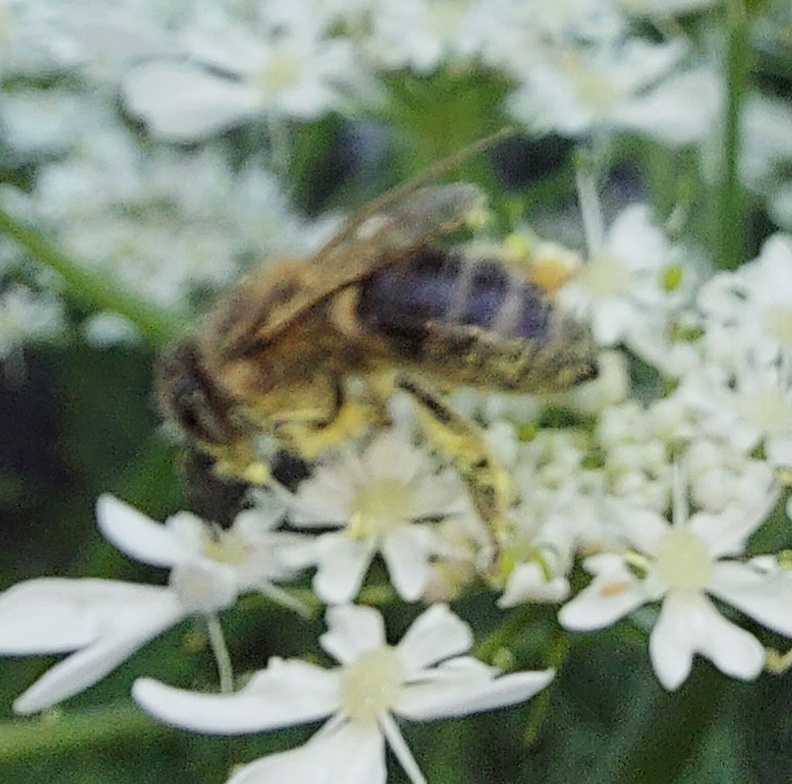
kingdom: Animalia
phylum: Arthropoda
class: Insecta
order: Hymenoptera
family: Apidae
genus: Apis
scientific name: Apis mellifera
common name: Honey bee
